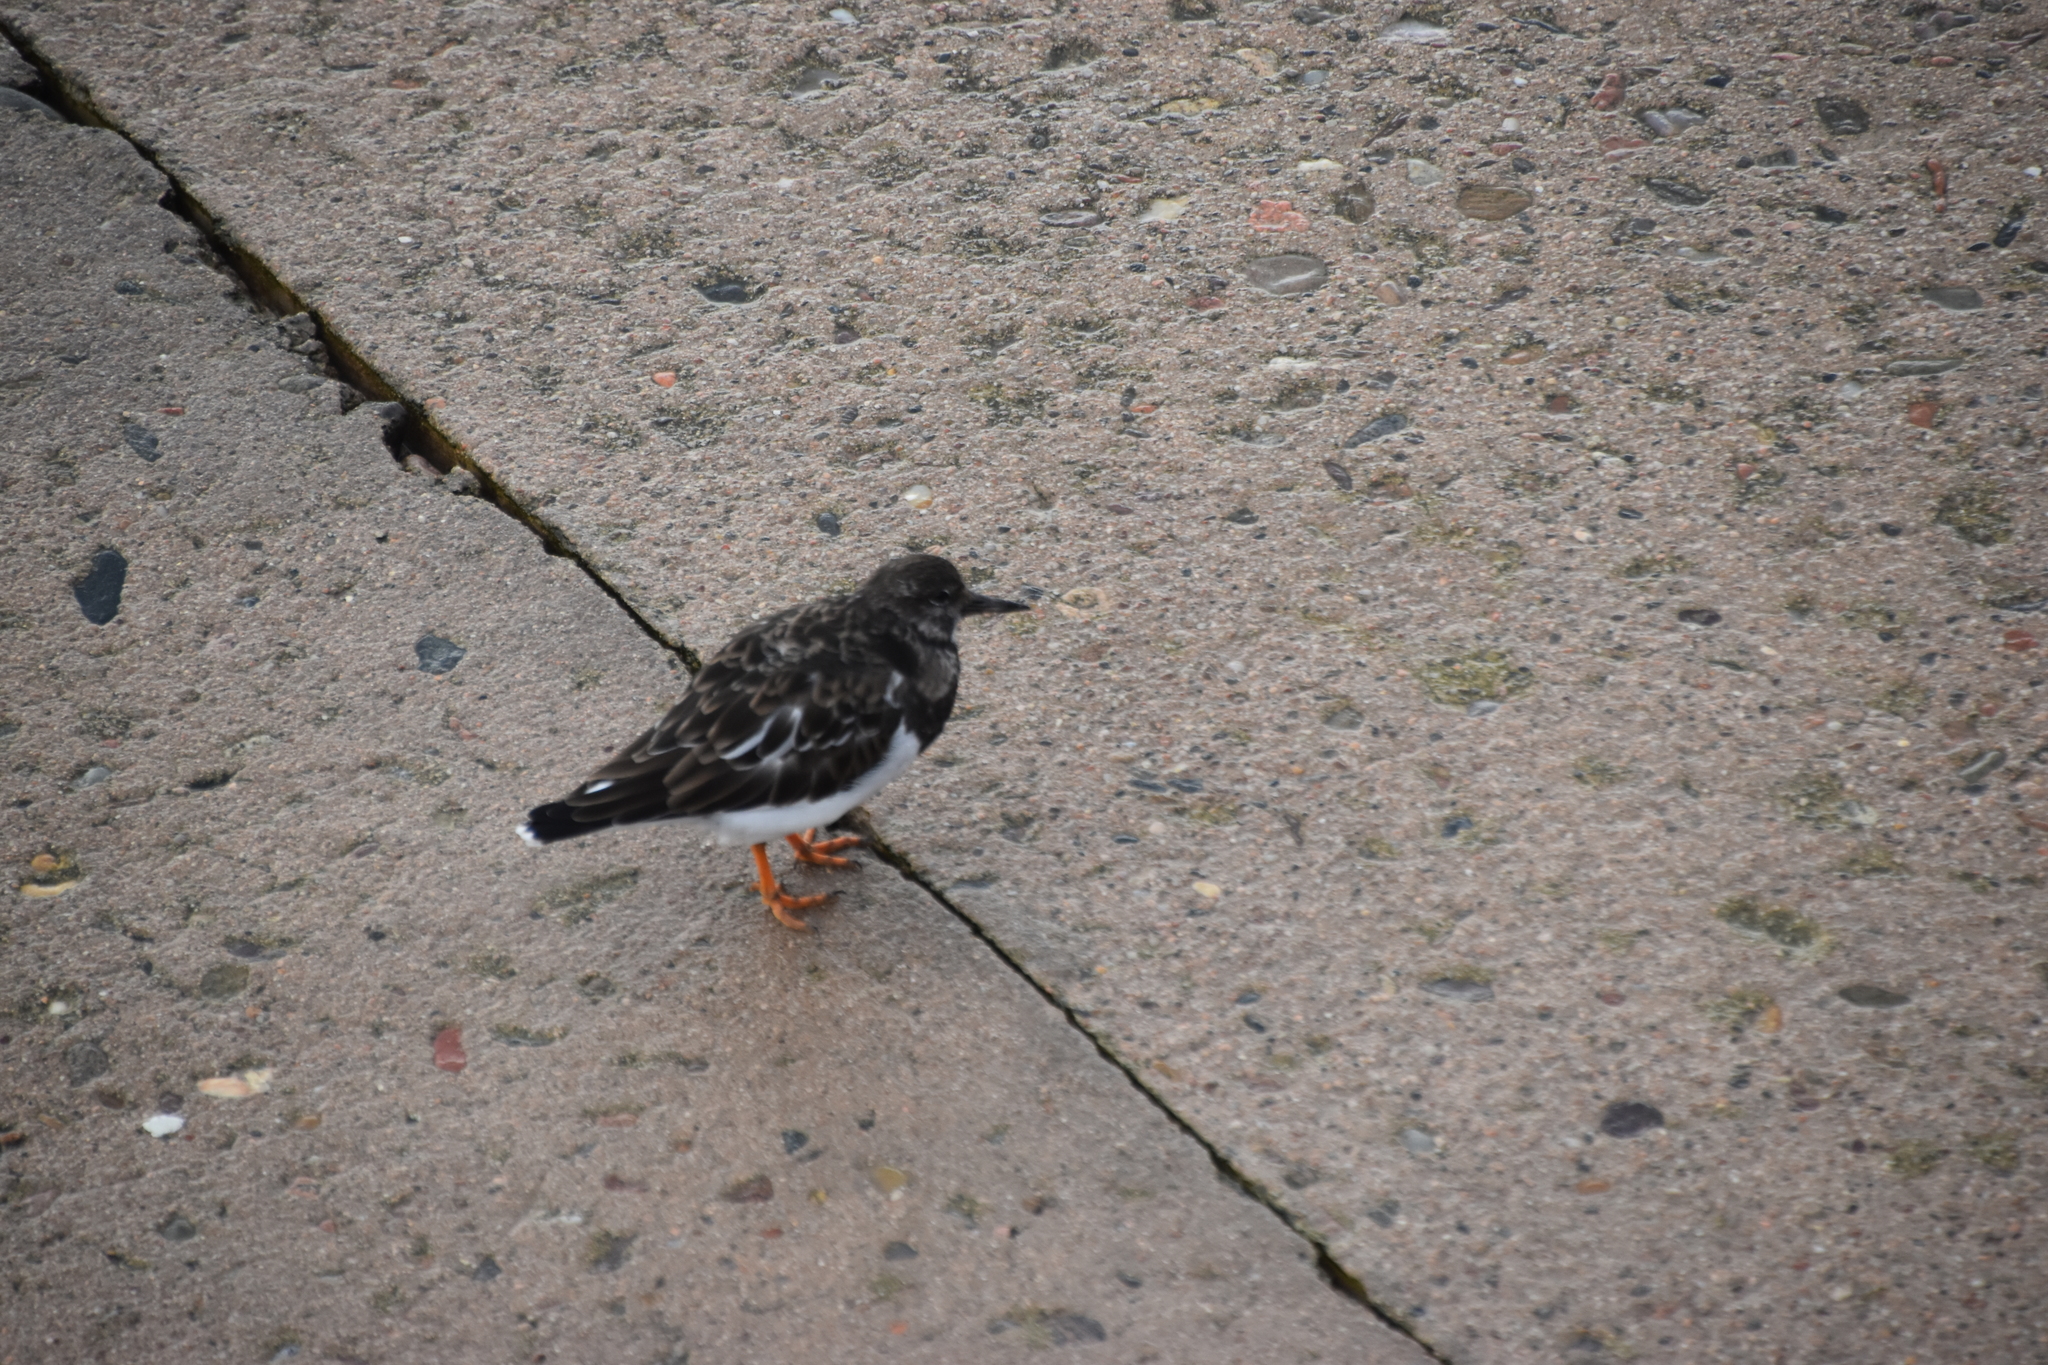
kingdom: Animalia
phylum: Chordata
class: Aves
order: Charadriiformes
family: Scolopacidae
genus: Arenaria
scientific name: Arenaria interpres
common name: Ruddy turnstone
